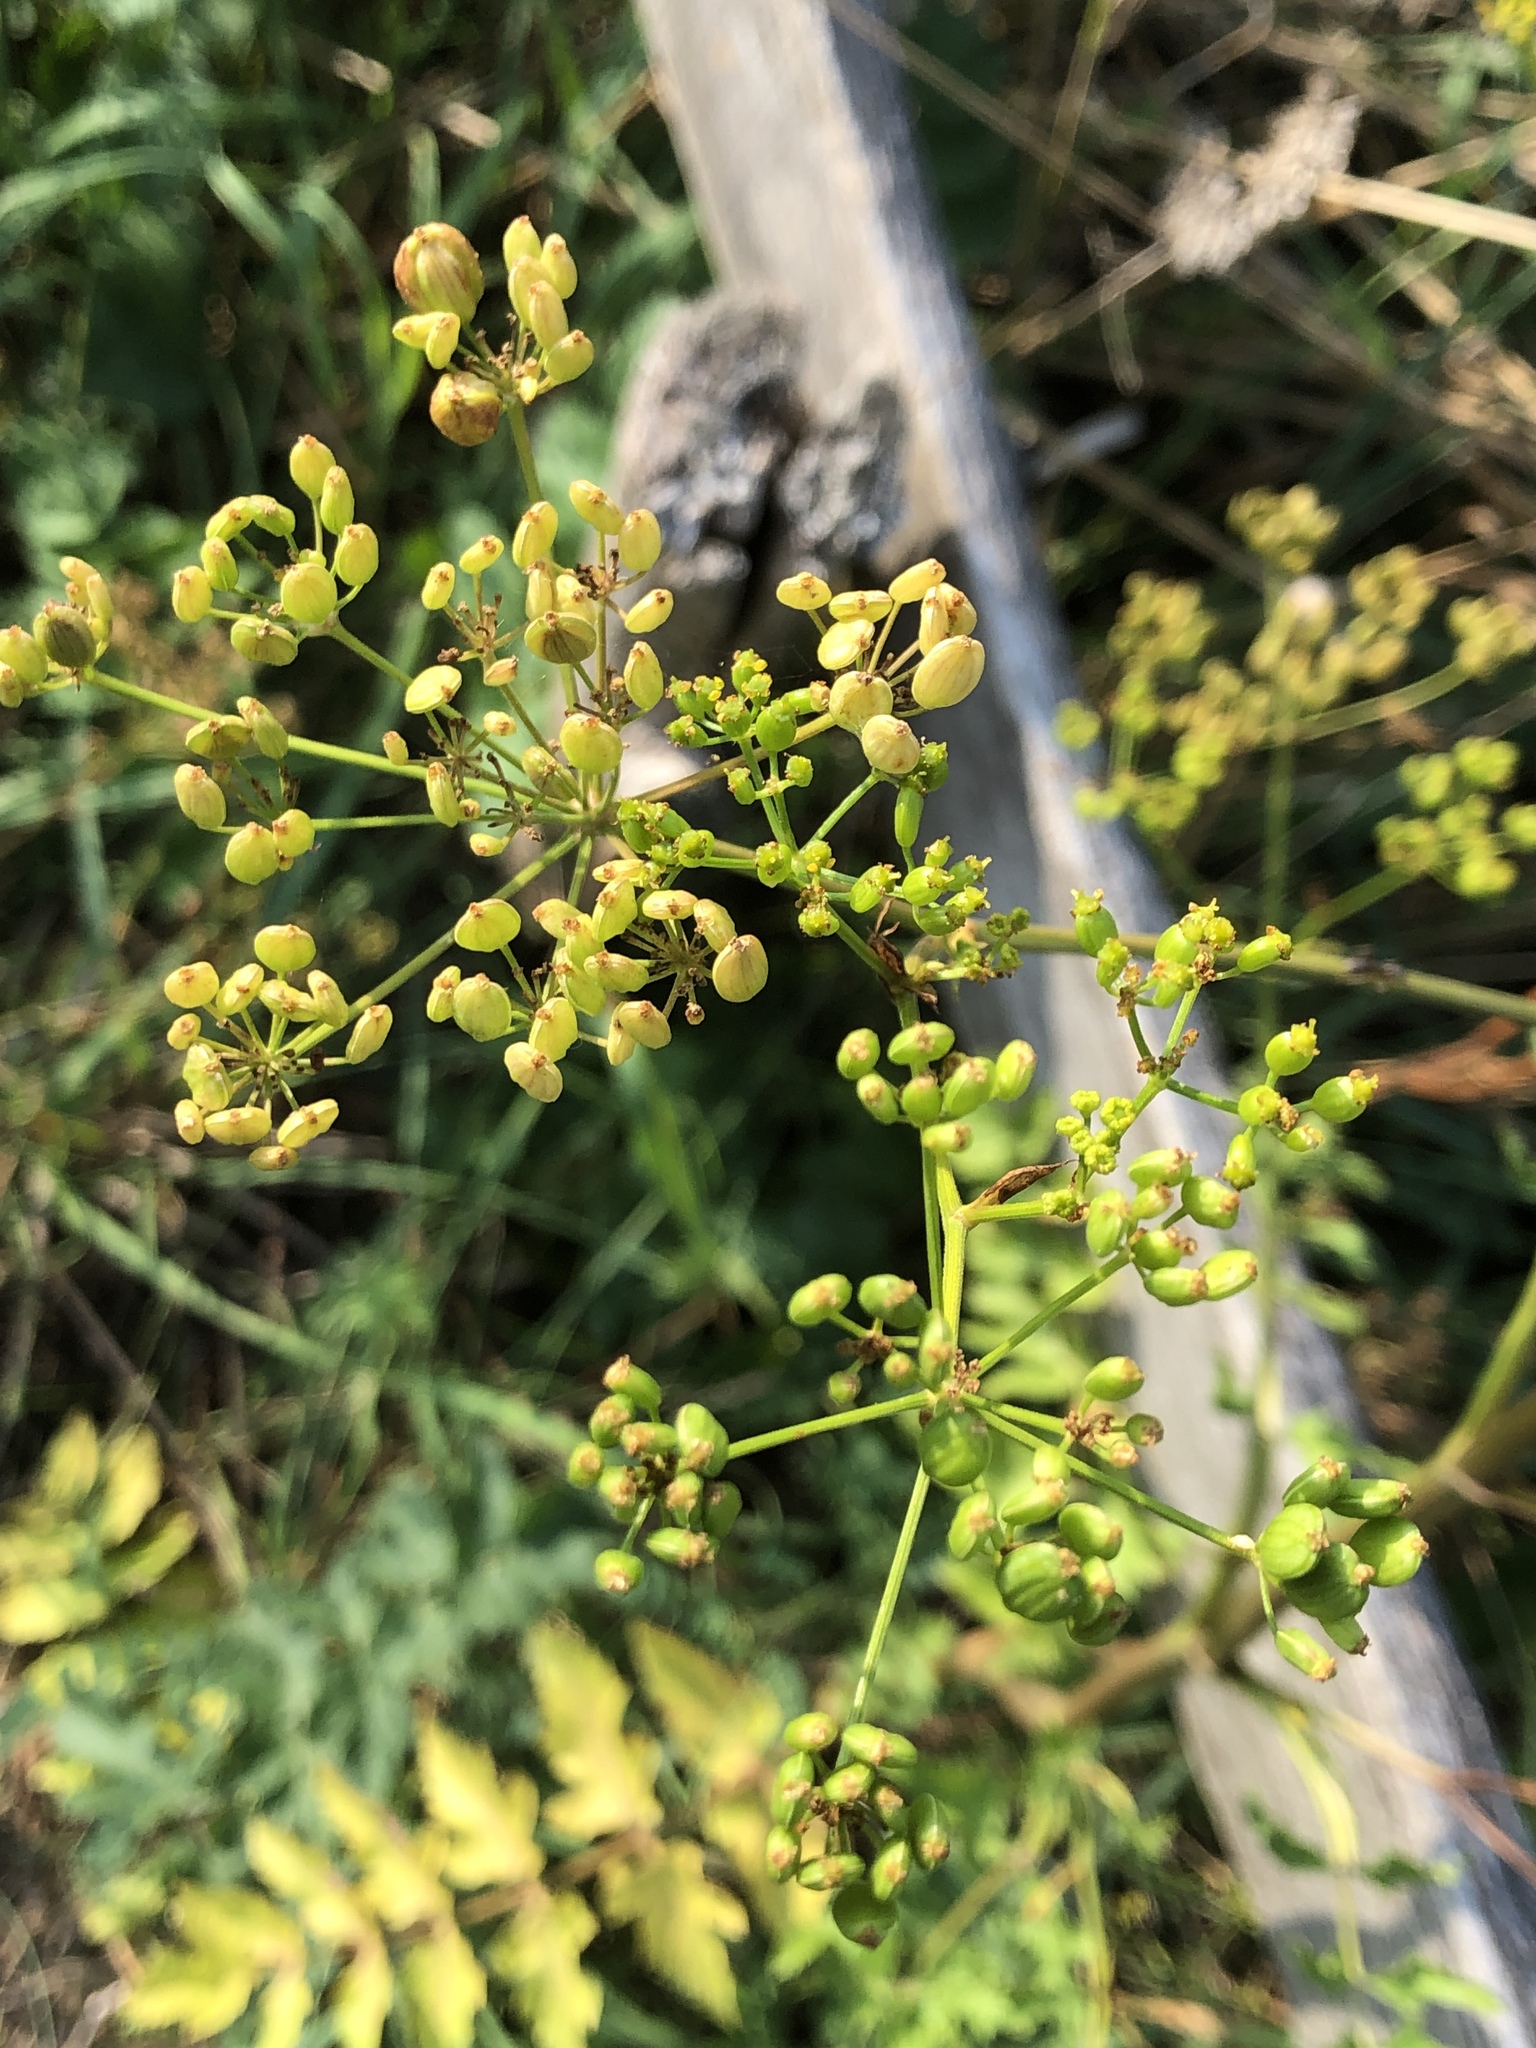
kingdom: Plantae
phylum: Tracheophyta
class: Magnoliopsida
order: Apiales
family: Apiaceae
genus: Pastinaca
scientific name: Pastinaca sativa
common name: Wild parsnip
